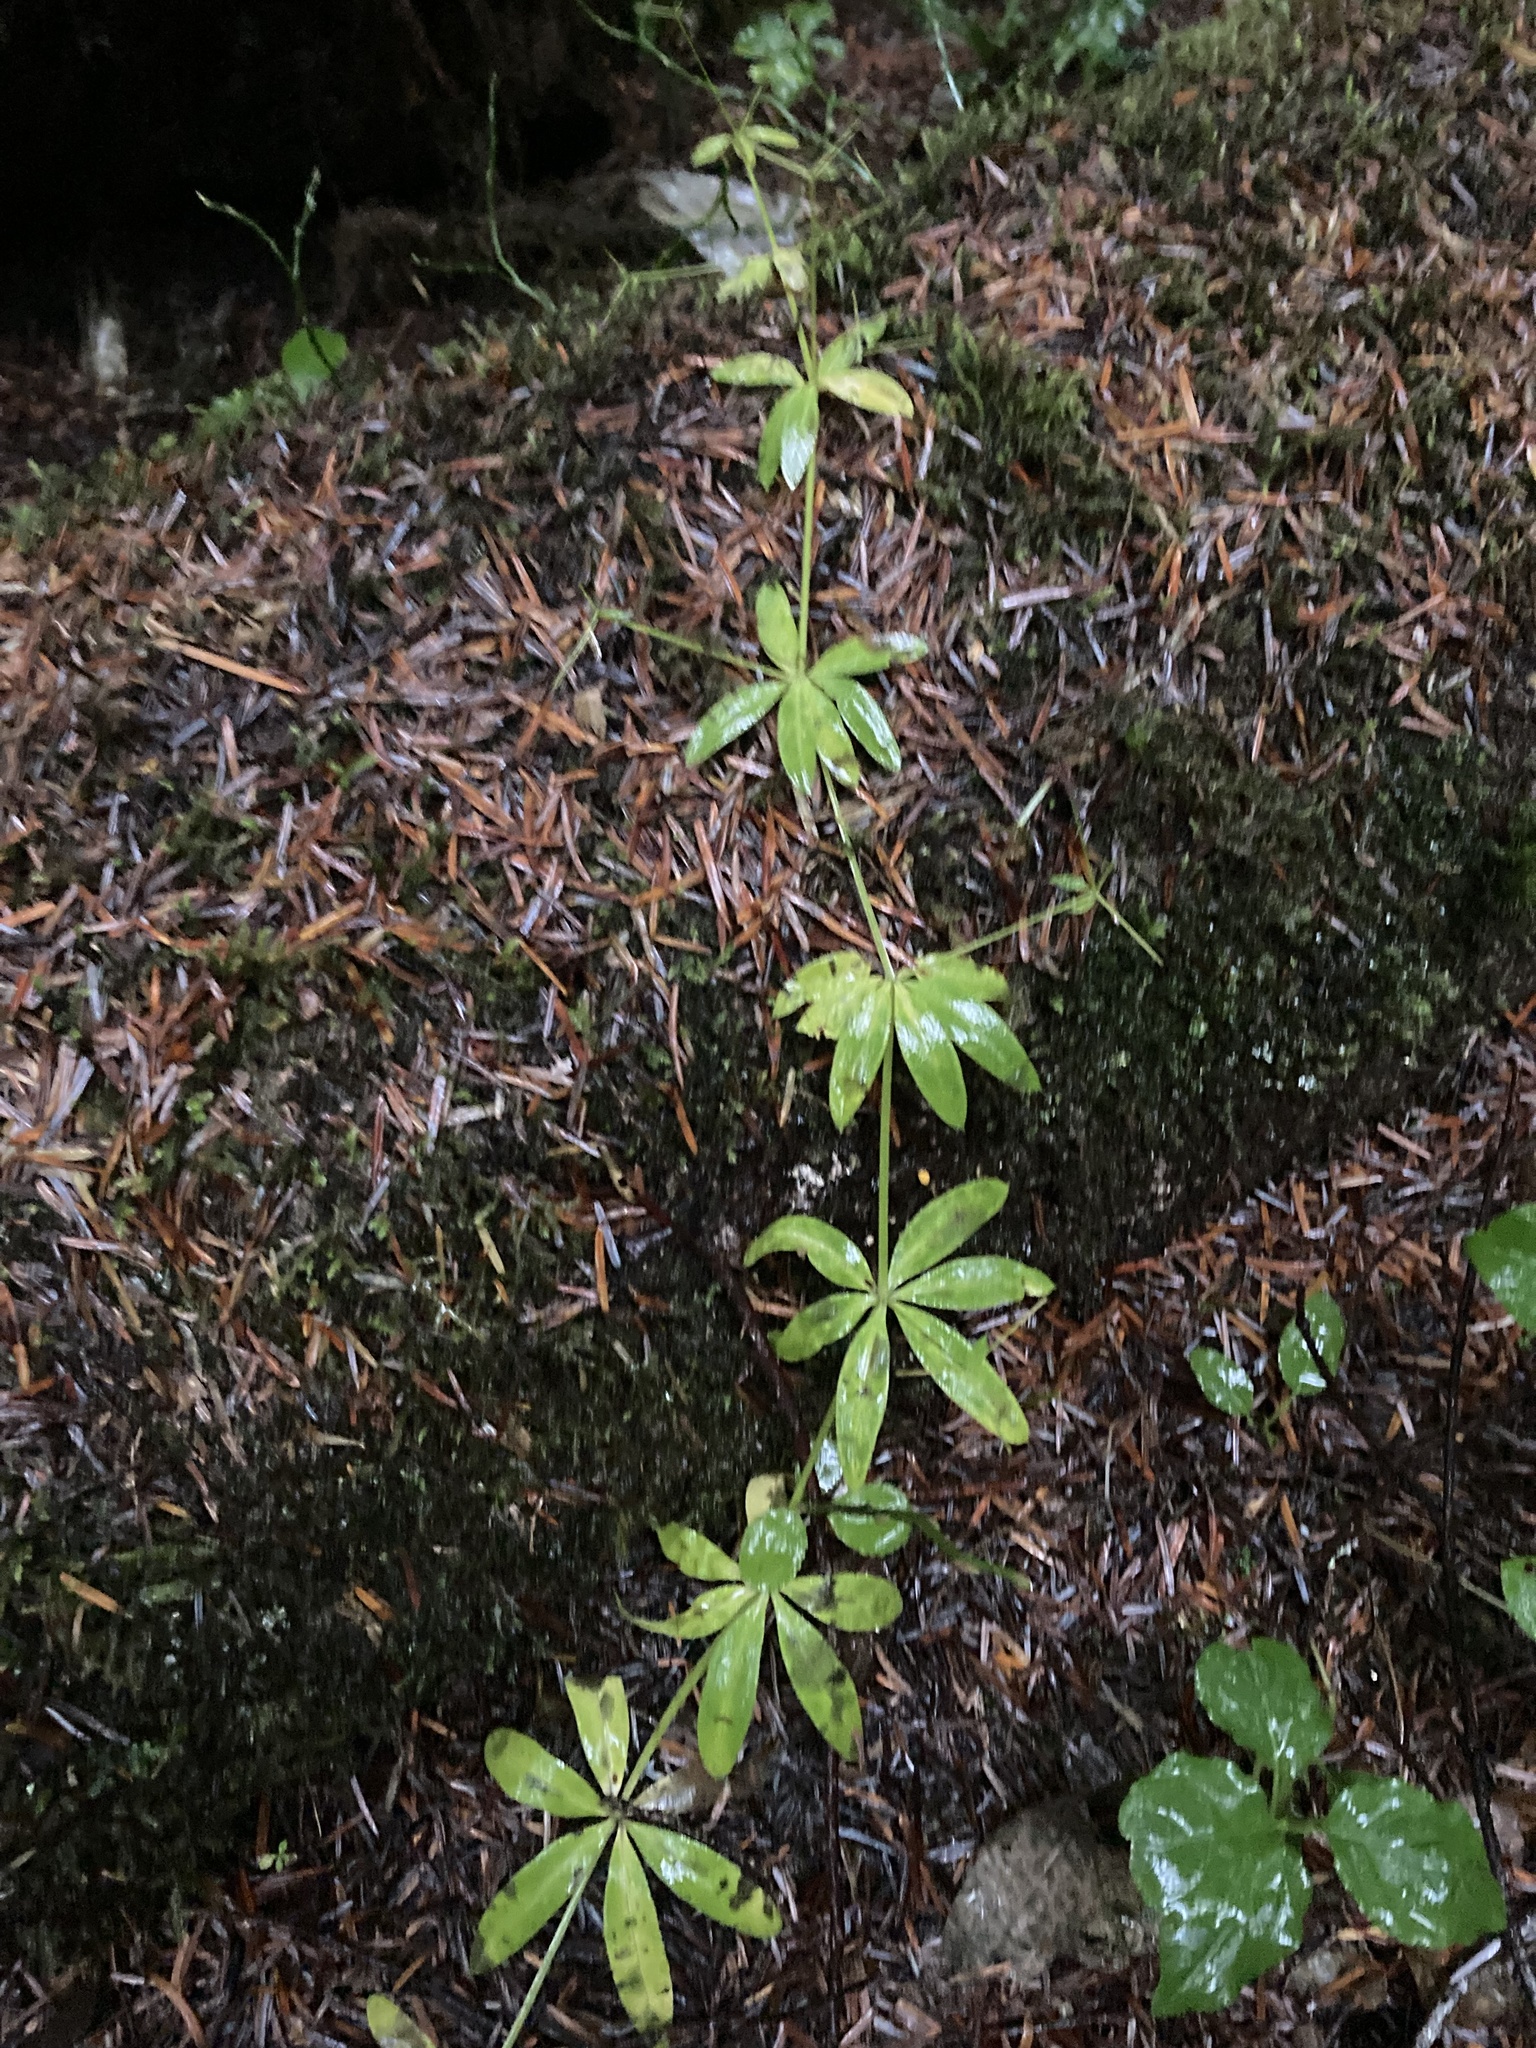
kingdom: Plantae
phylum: Tracheophyta
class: Magnoliopsida
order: Gentianales
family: Rubiaceae
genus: Galium
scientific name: Galium triflorum
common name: Fragrant bedstraw
